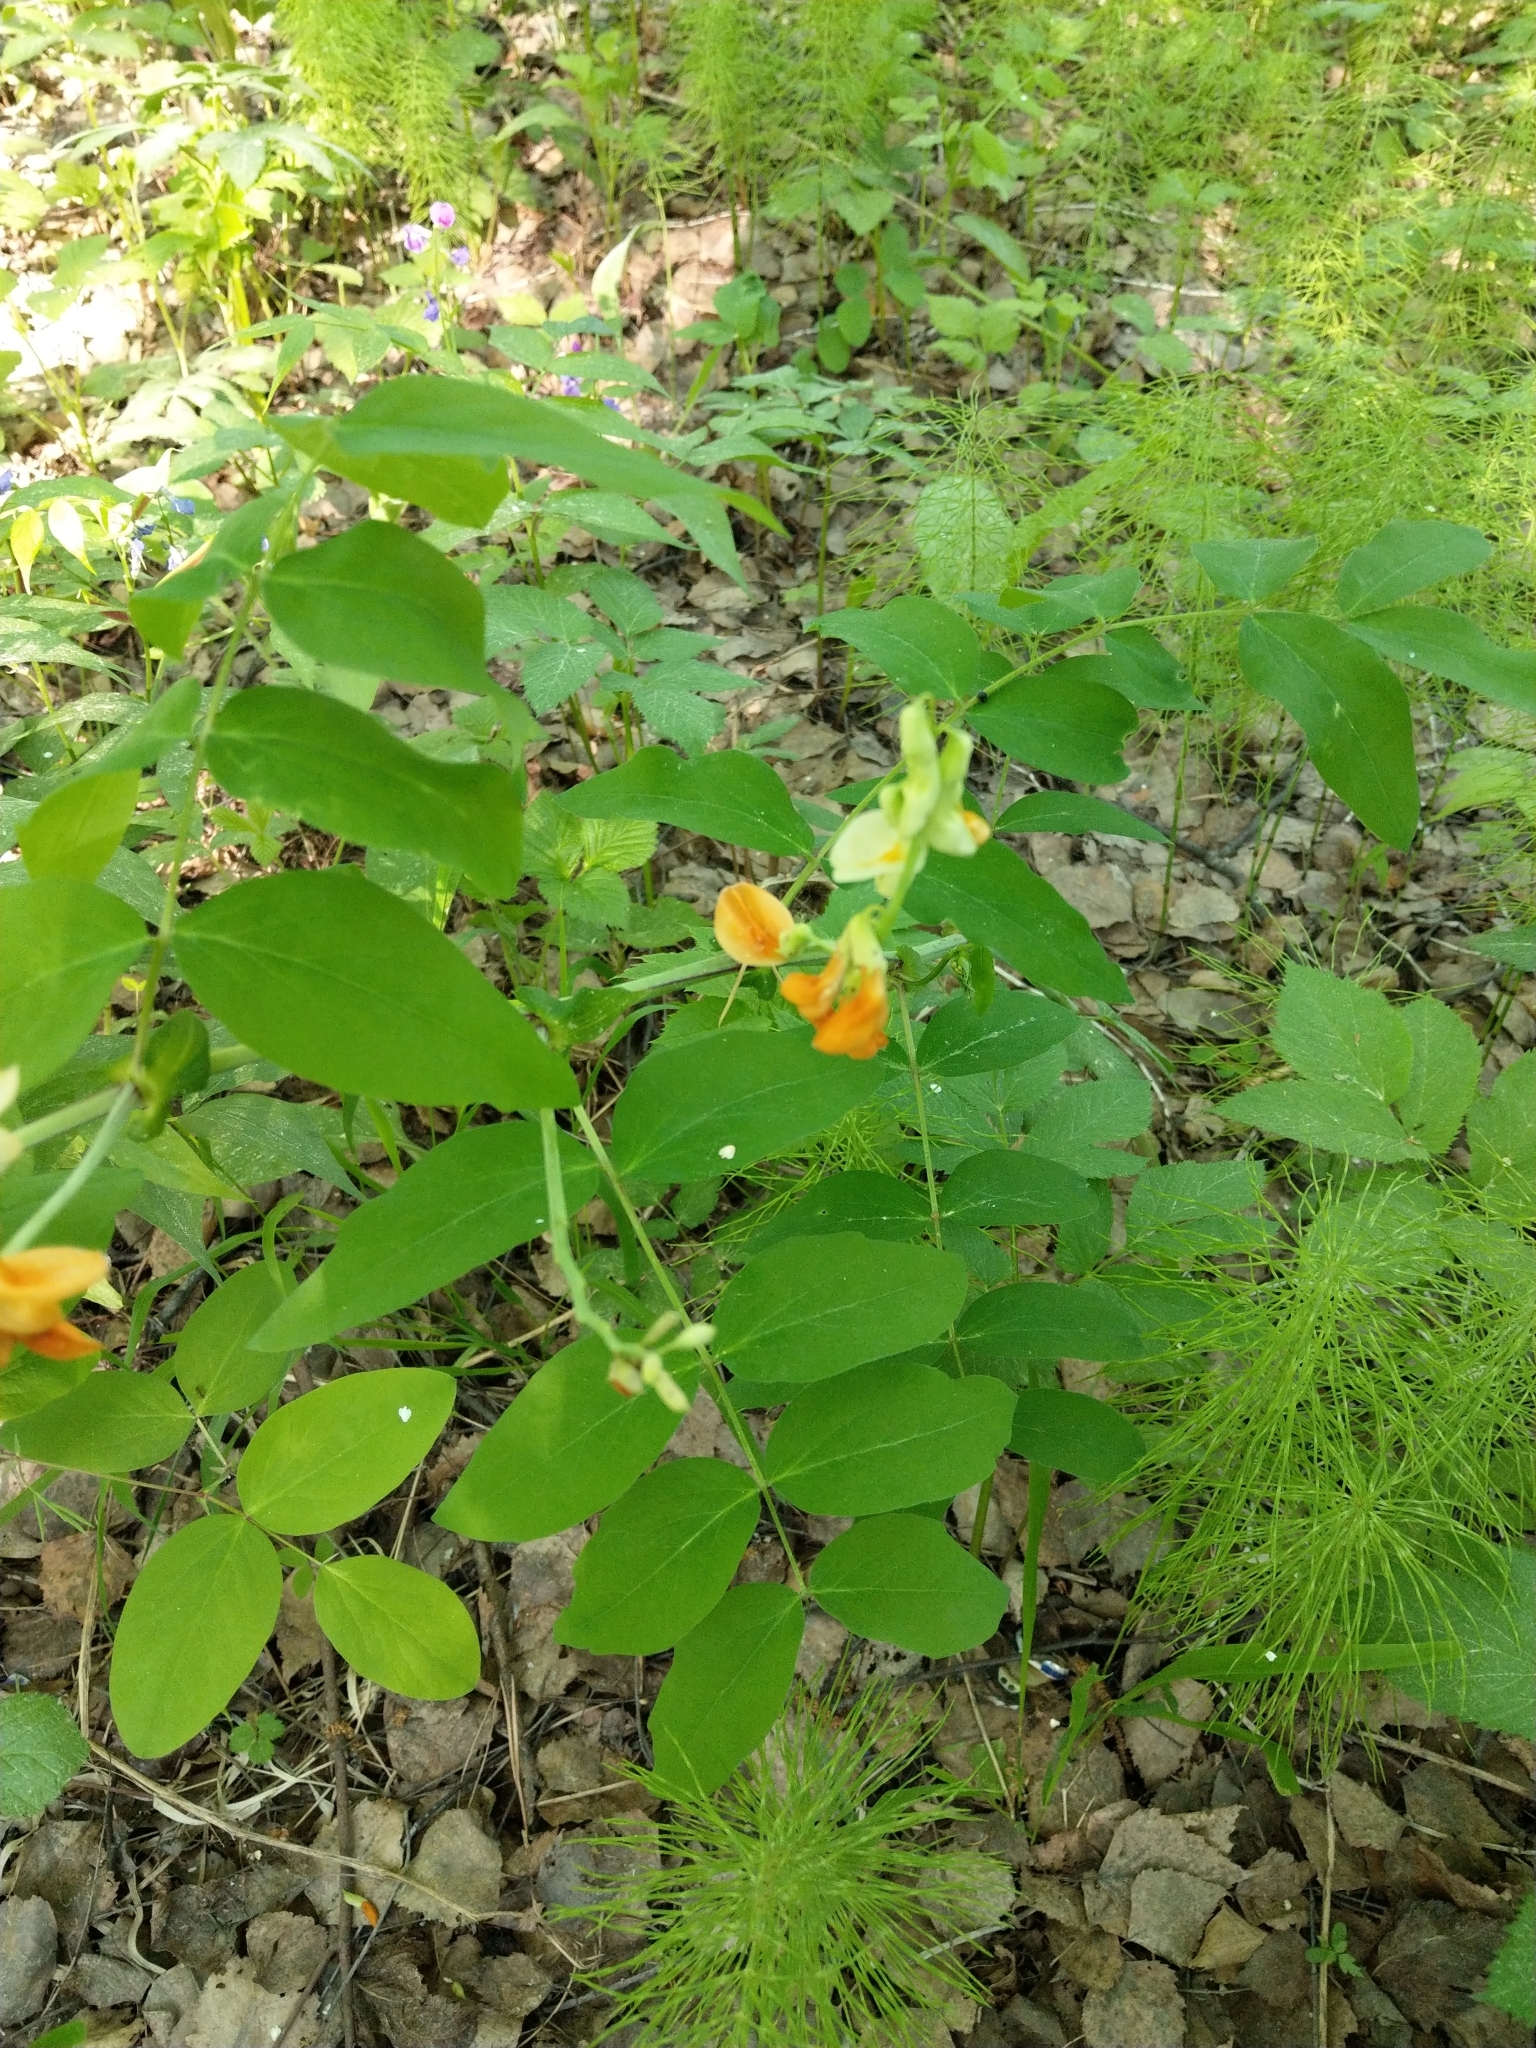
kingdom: Plantae
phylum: Tracheophyta
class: Magnoliopsida
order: Fabales
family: Fabaceae
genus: Lathyrus
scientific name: Lathyrus gmelinii
